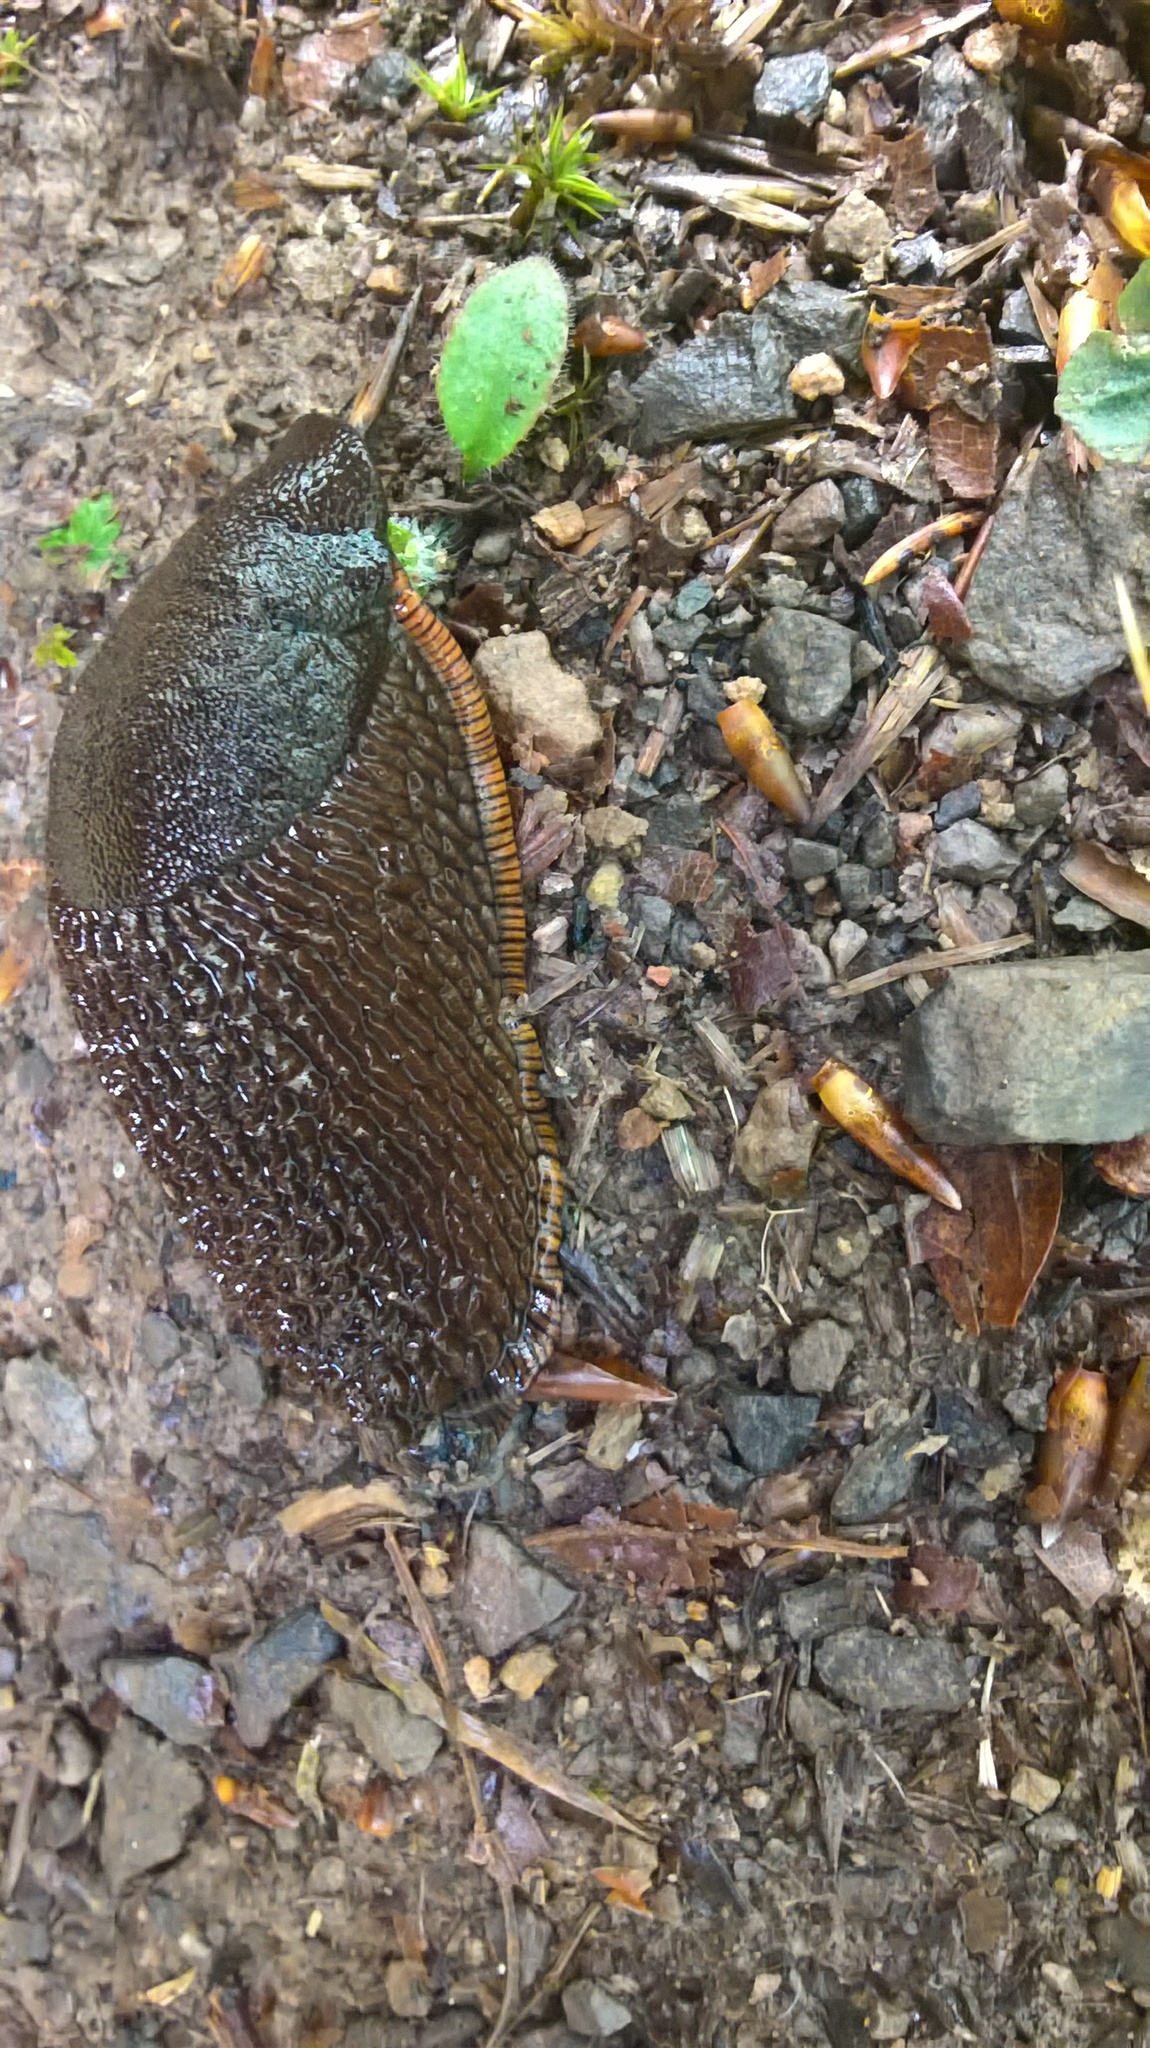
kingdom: Animalia
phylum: Mollusca
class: Gastropoda
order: Stylommatophora
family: Arionidae
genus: Arion
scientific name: Arion rufus
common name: Chocolate arion
